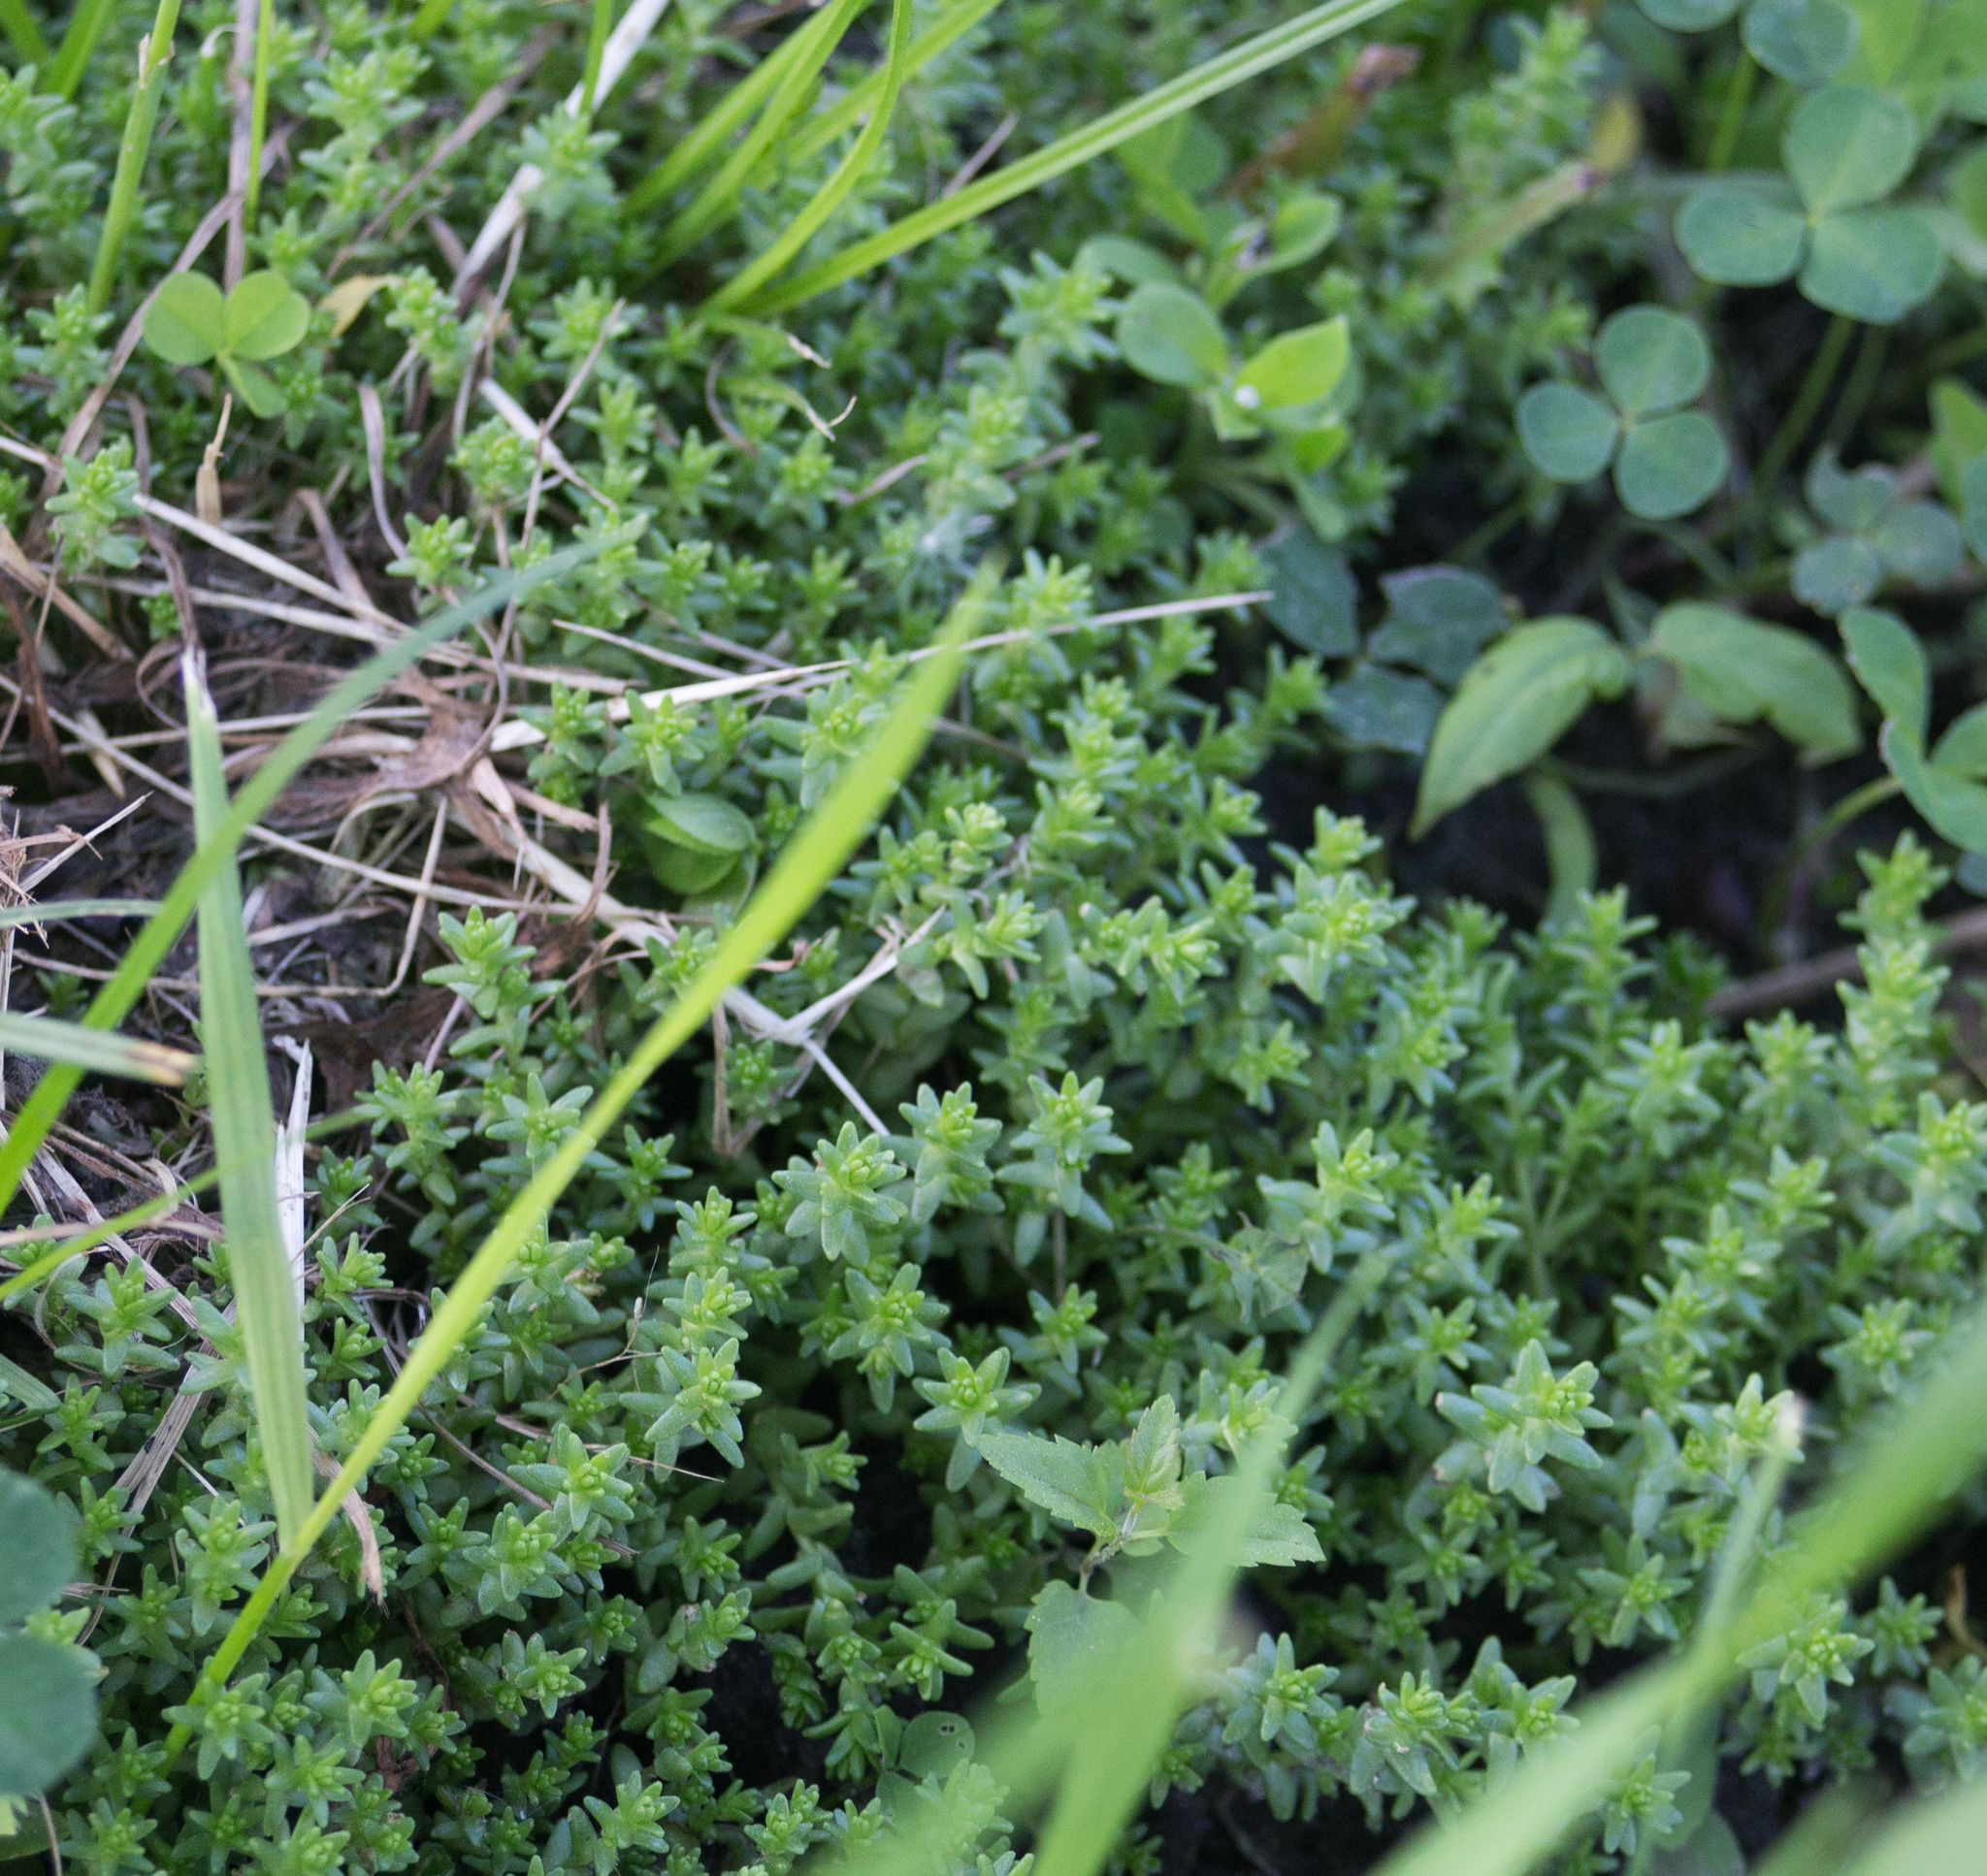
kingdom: Plantae
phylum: Tracheophyta
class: Magnoliopsida
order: Saxifragales
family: Crassulaceae
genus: Sedum
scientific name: Sedum acre
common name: Biting stonecrop
